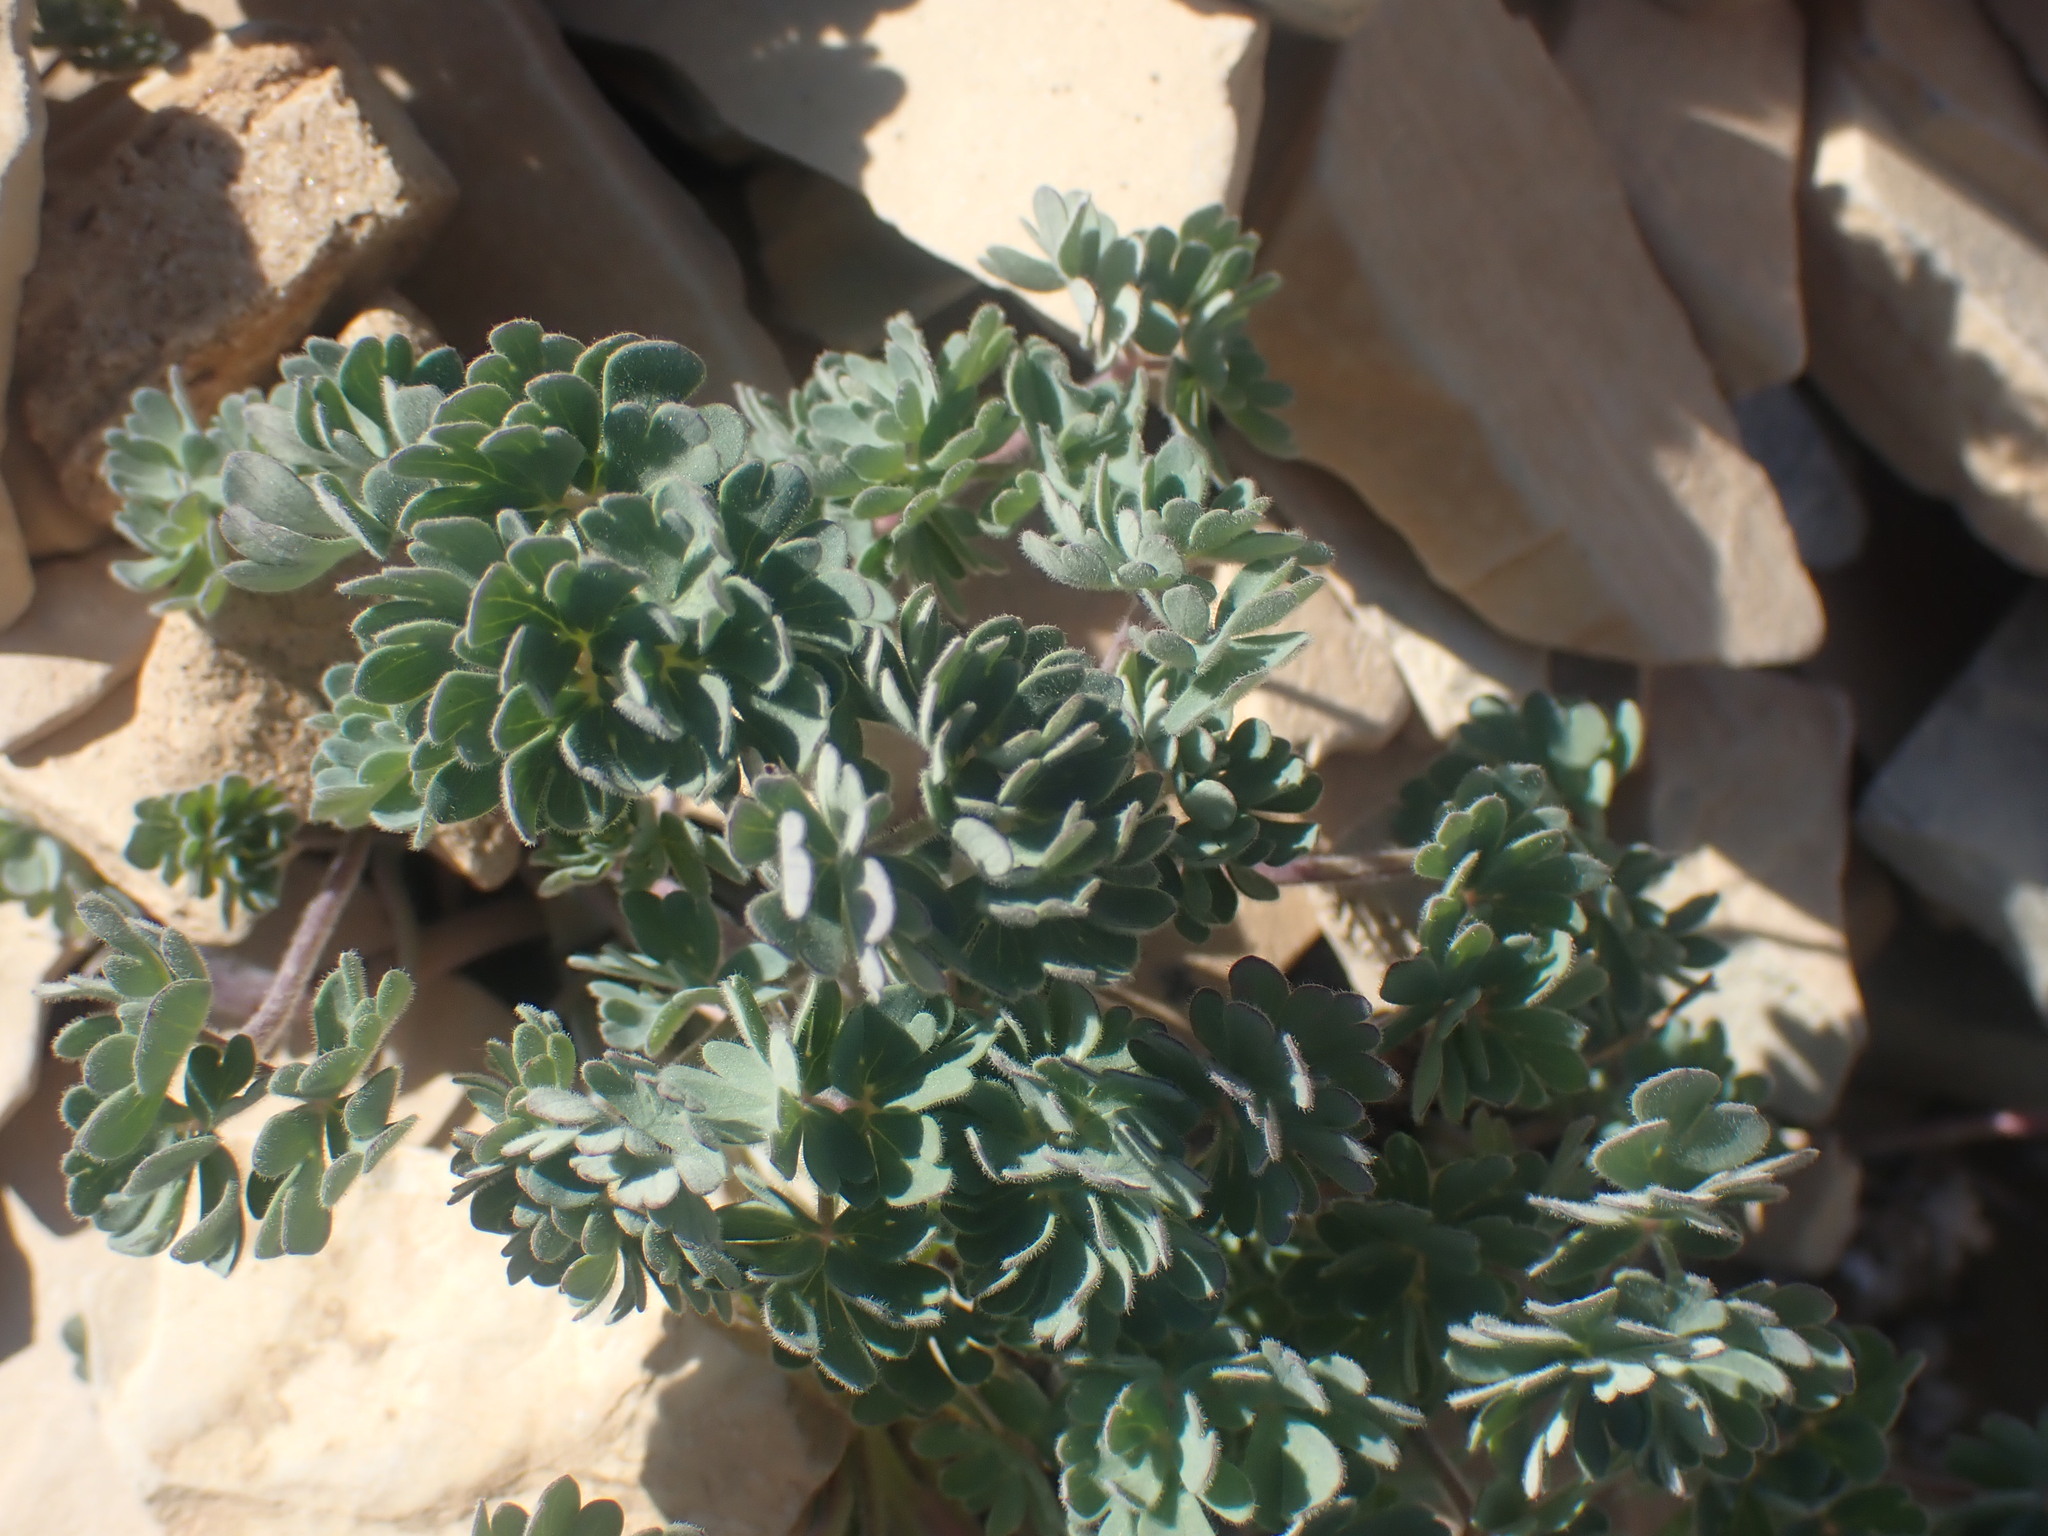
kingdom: Plantae
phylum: Tracheophyta
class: Magnoliopsida
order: Ranunculales
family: Ranunculaceae
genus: Aquilegia
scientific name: Aquilegia jonesii
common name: Jones' columbine
